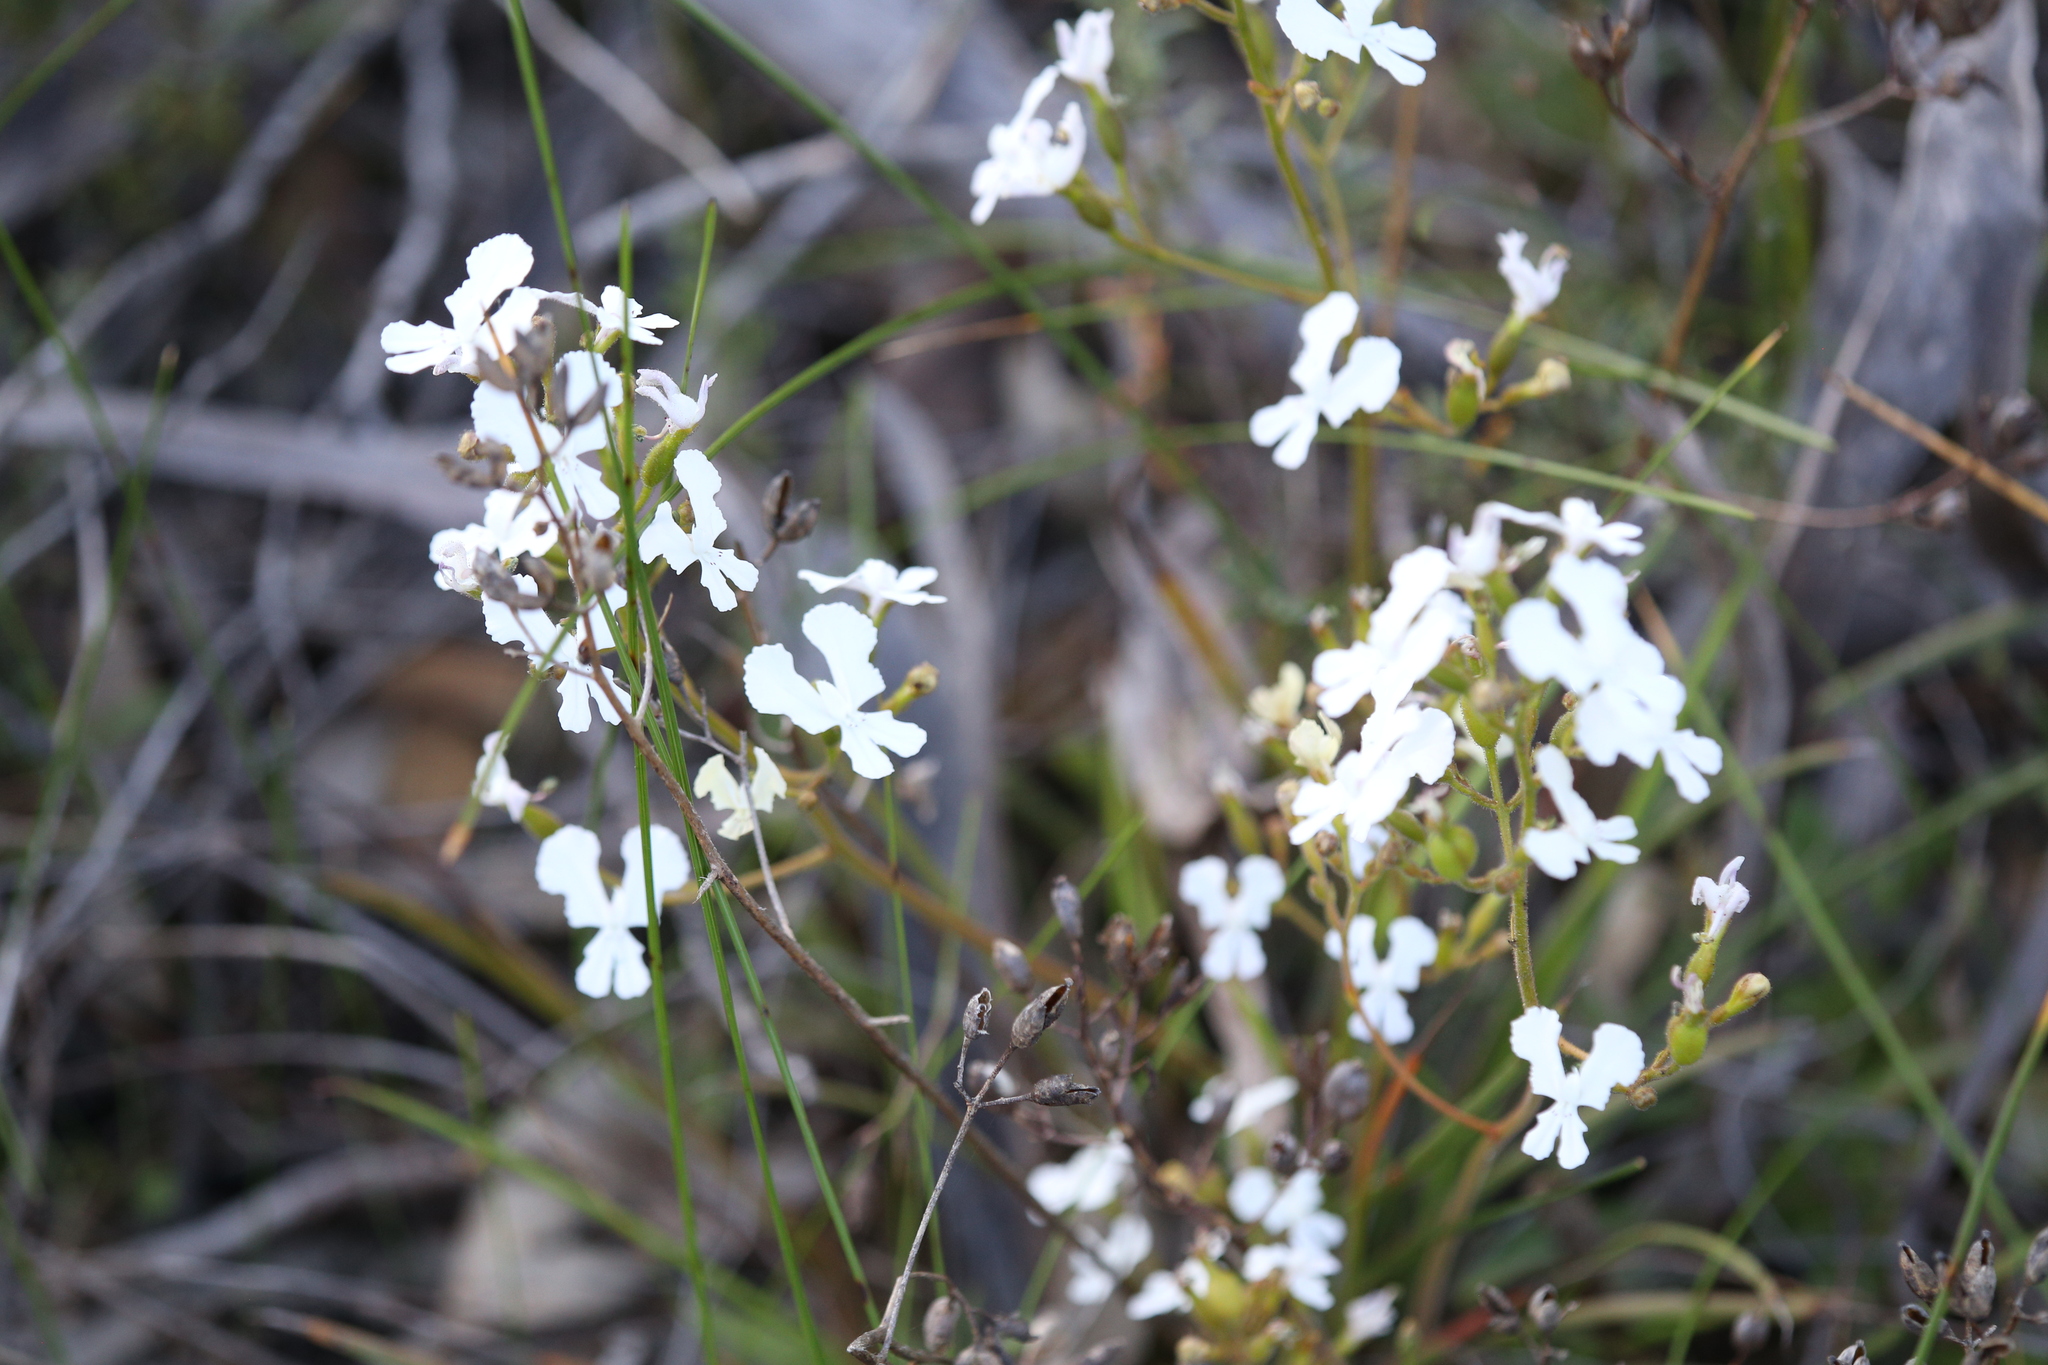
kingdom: Plantae
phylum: Tracheophyta
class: Magnoliopsida
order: Asterales
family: Stylidiaceae
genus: Stylidium
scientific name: Stylidium caricifolium
